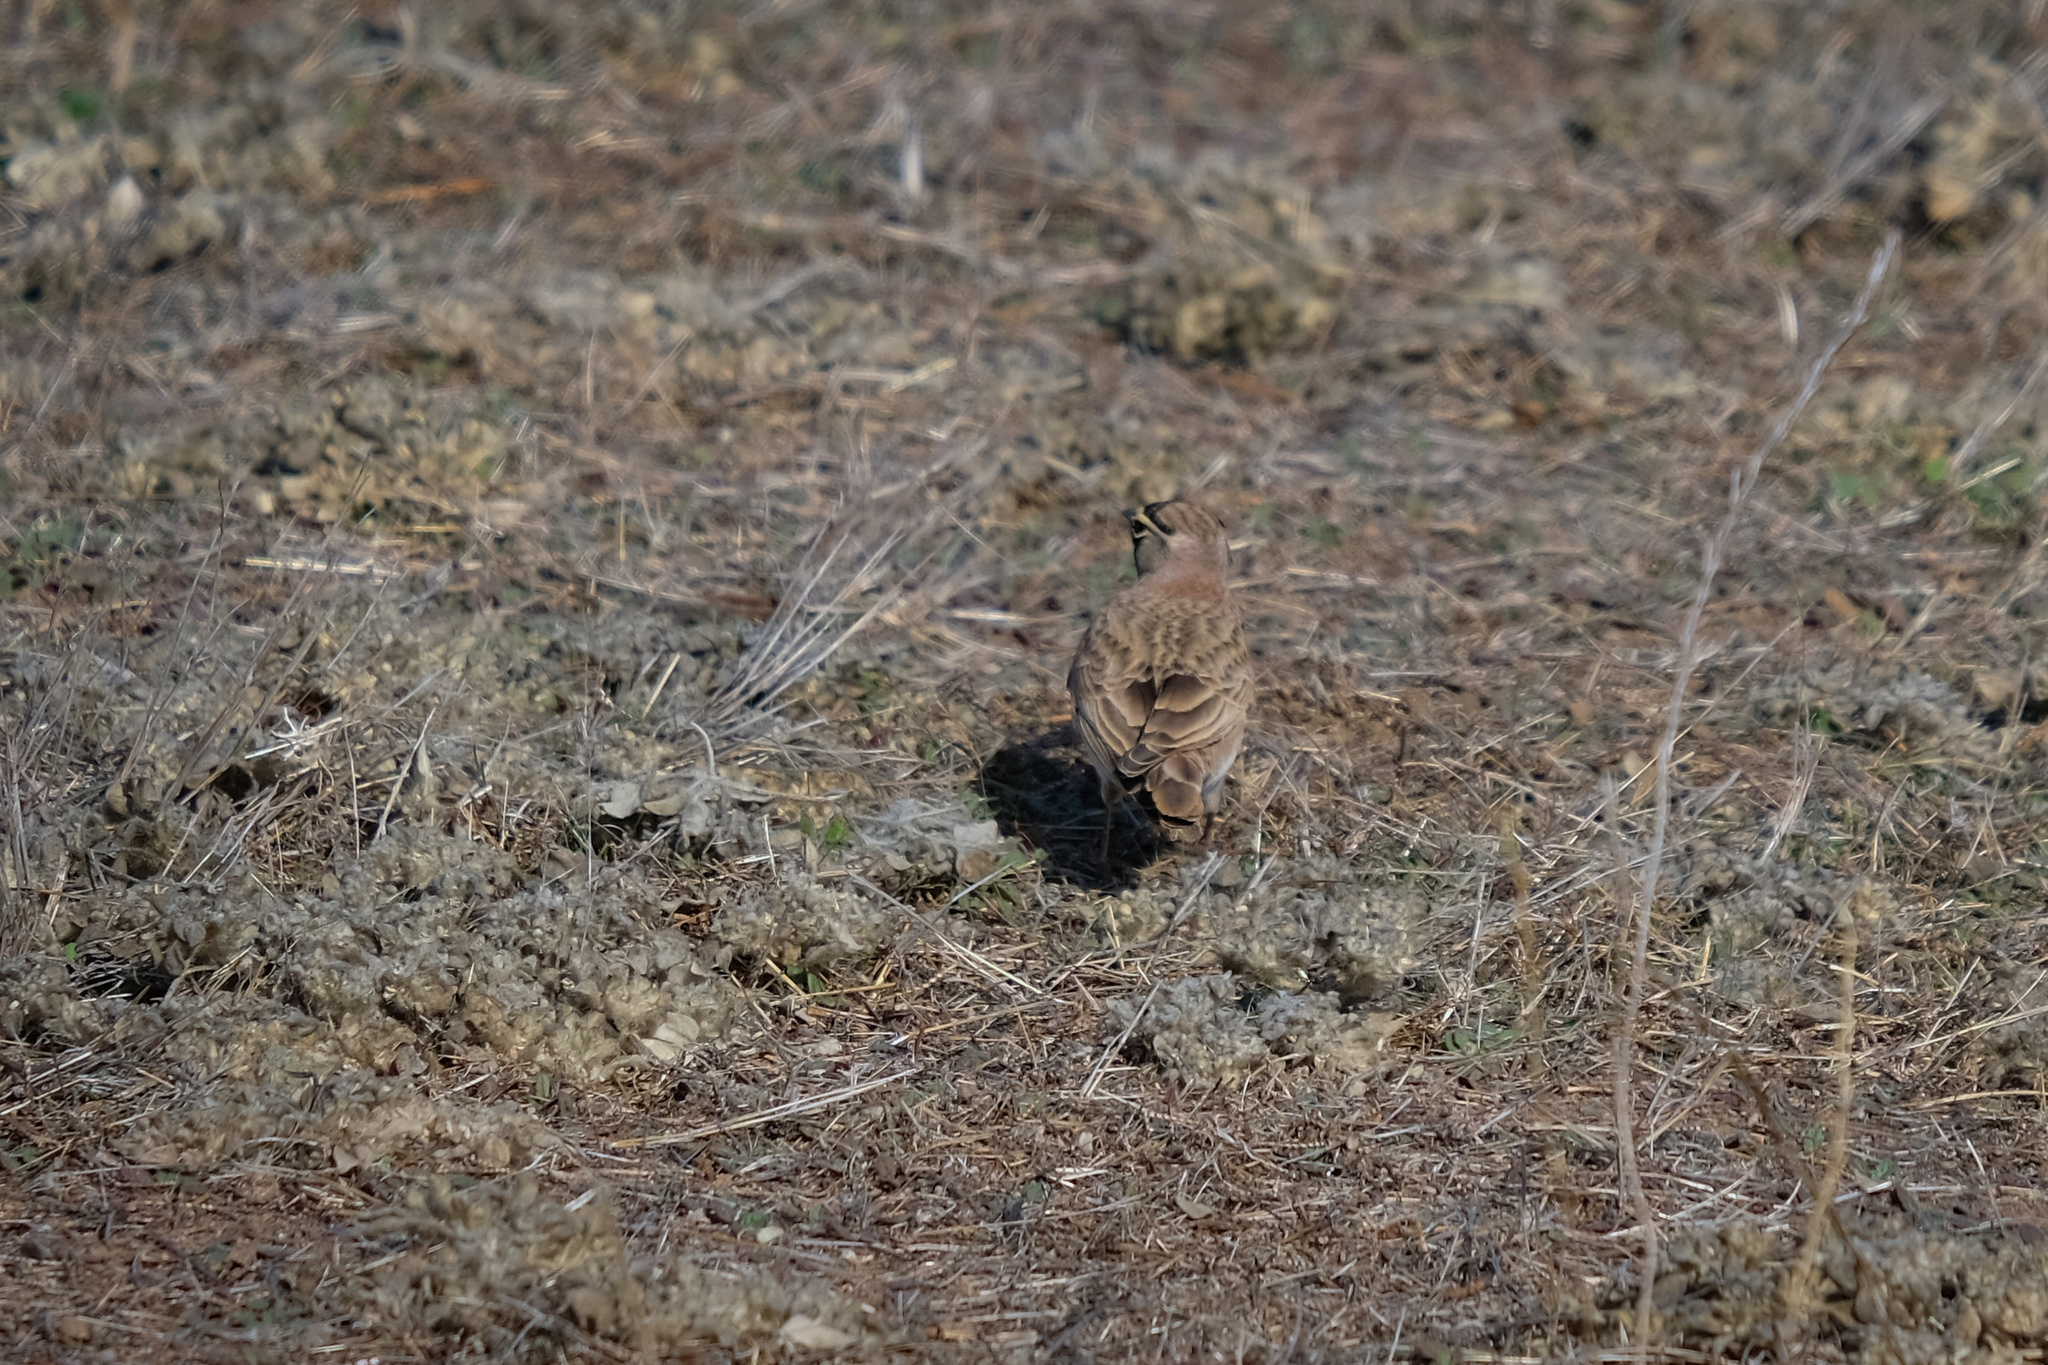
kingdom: Animalia
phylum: Chordata
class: Aves
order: Passeriformes
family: Alaudidae
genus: Eremophila
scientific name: Eremophila alpestris
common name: Horned lark
